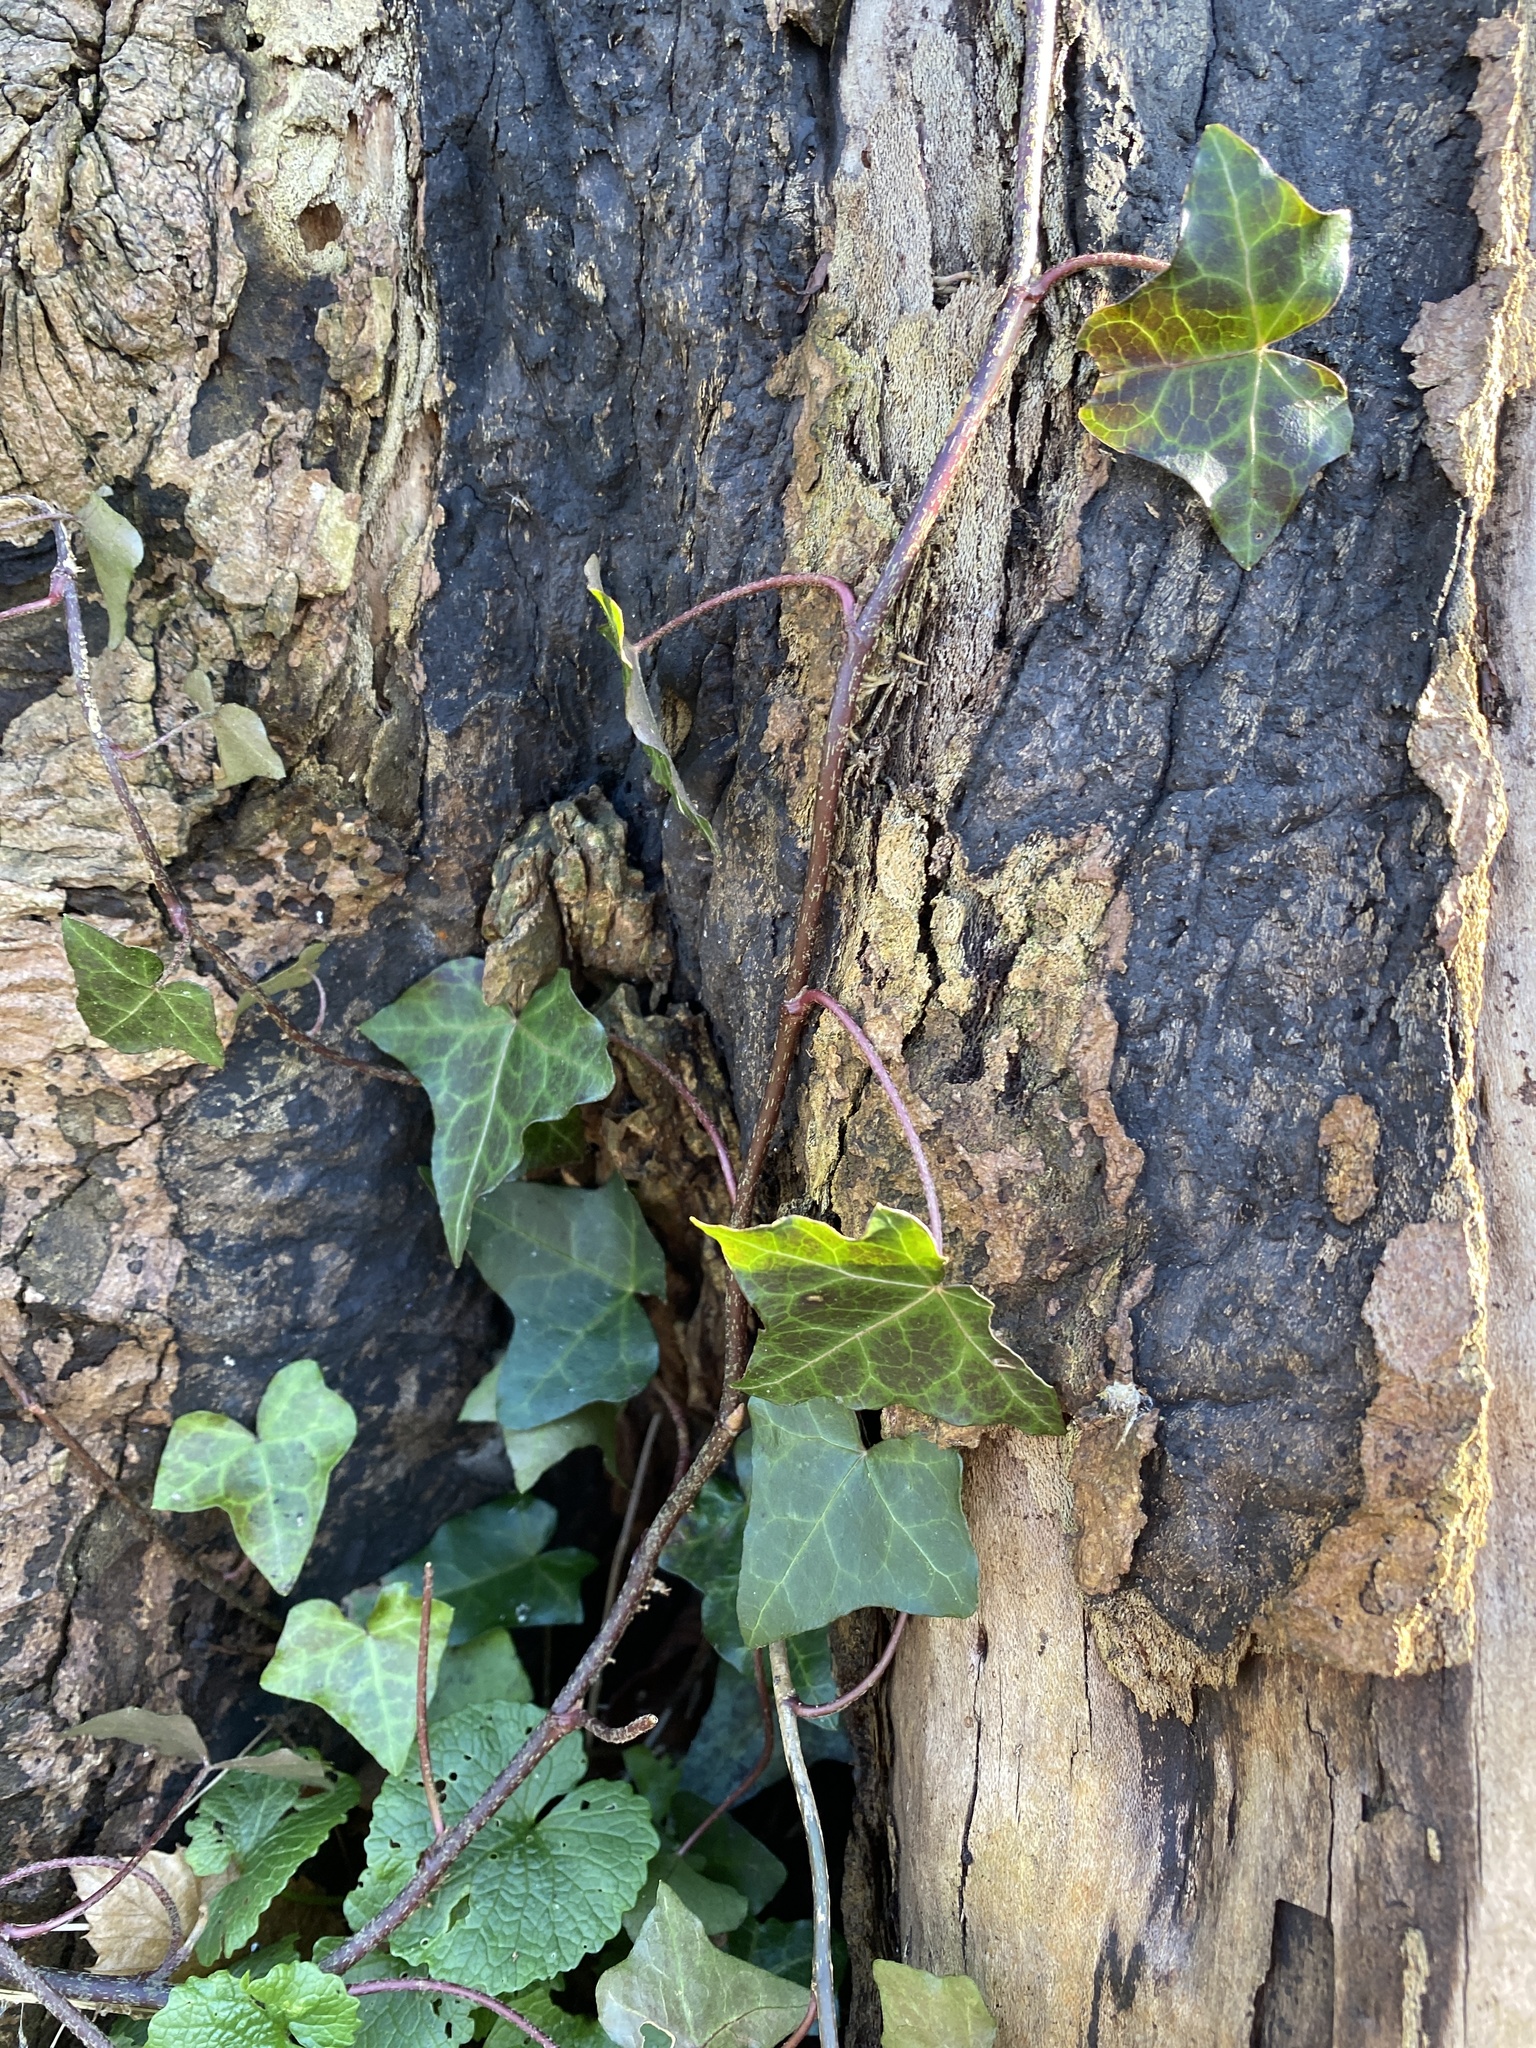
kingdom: Plantae
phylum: Tracheophyta
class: Magnoliopsida
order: Apiales
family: Araliaceae
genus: Hedera
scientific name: Hedera helix
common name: Ivy
